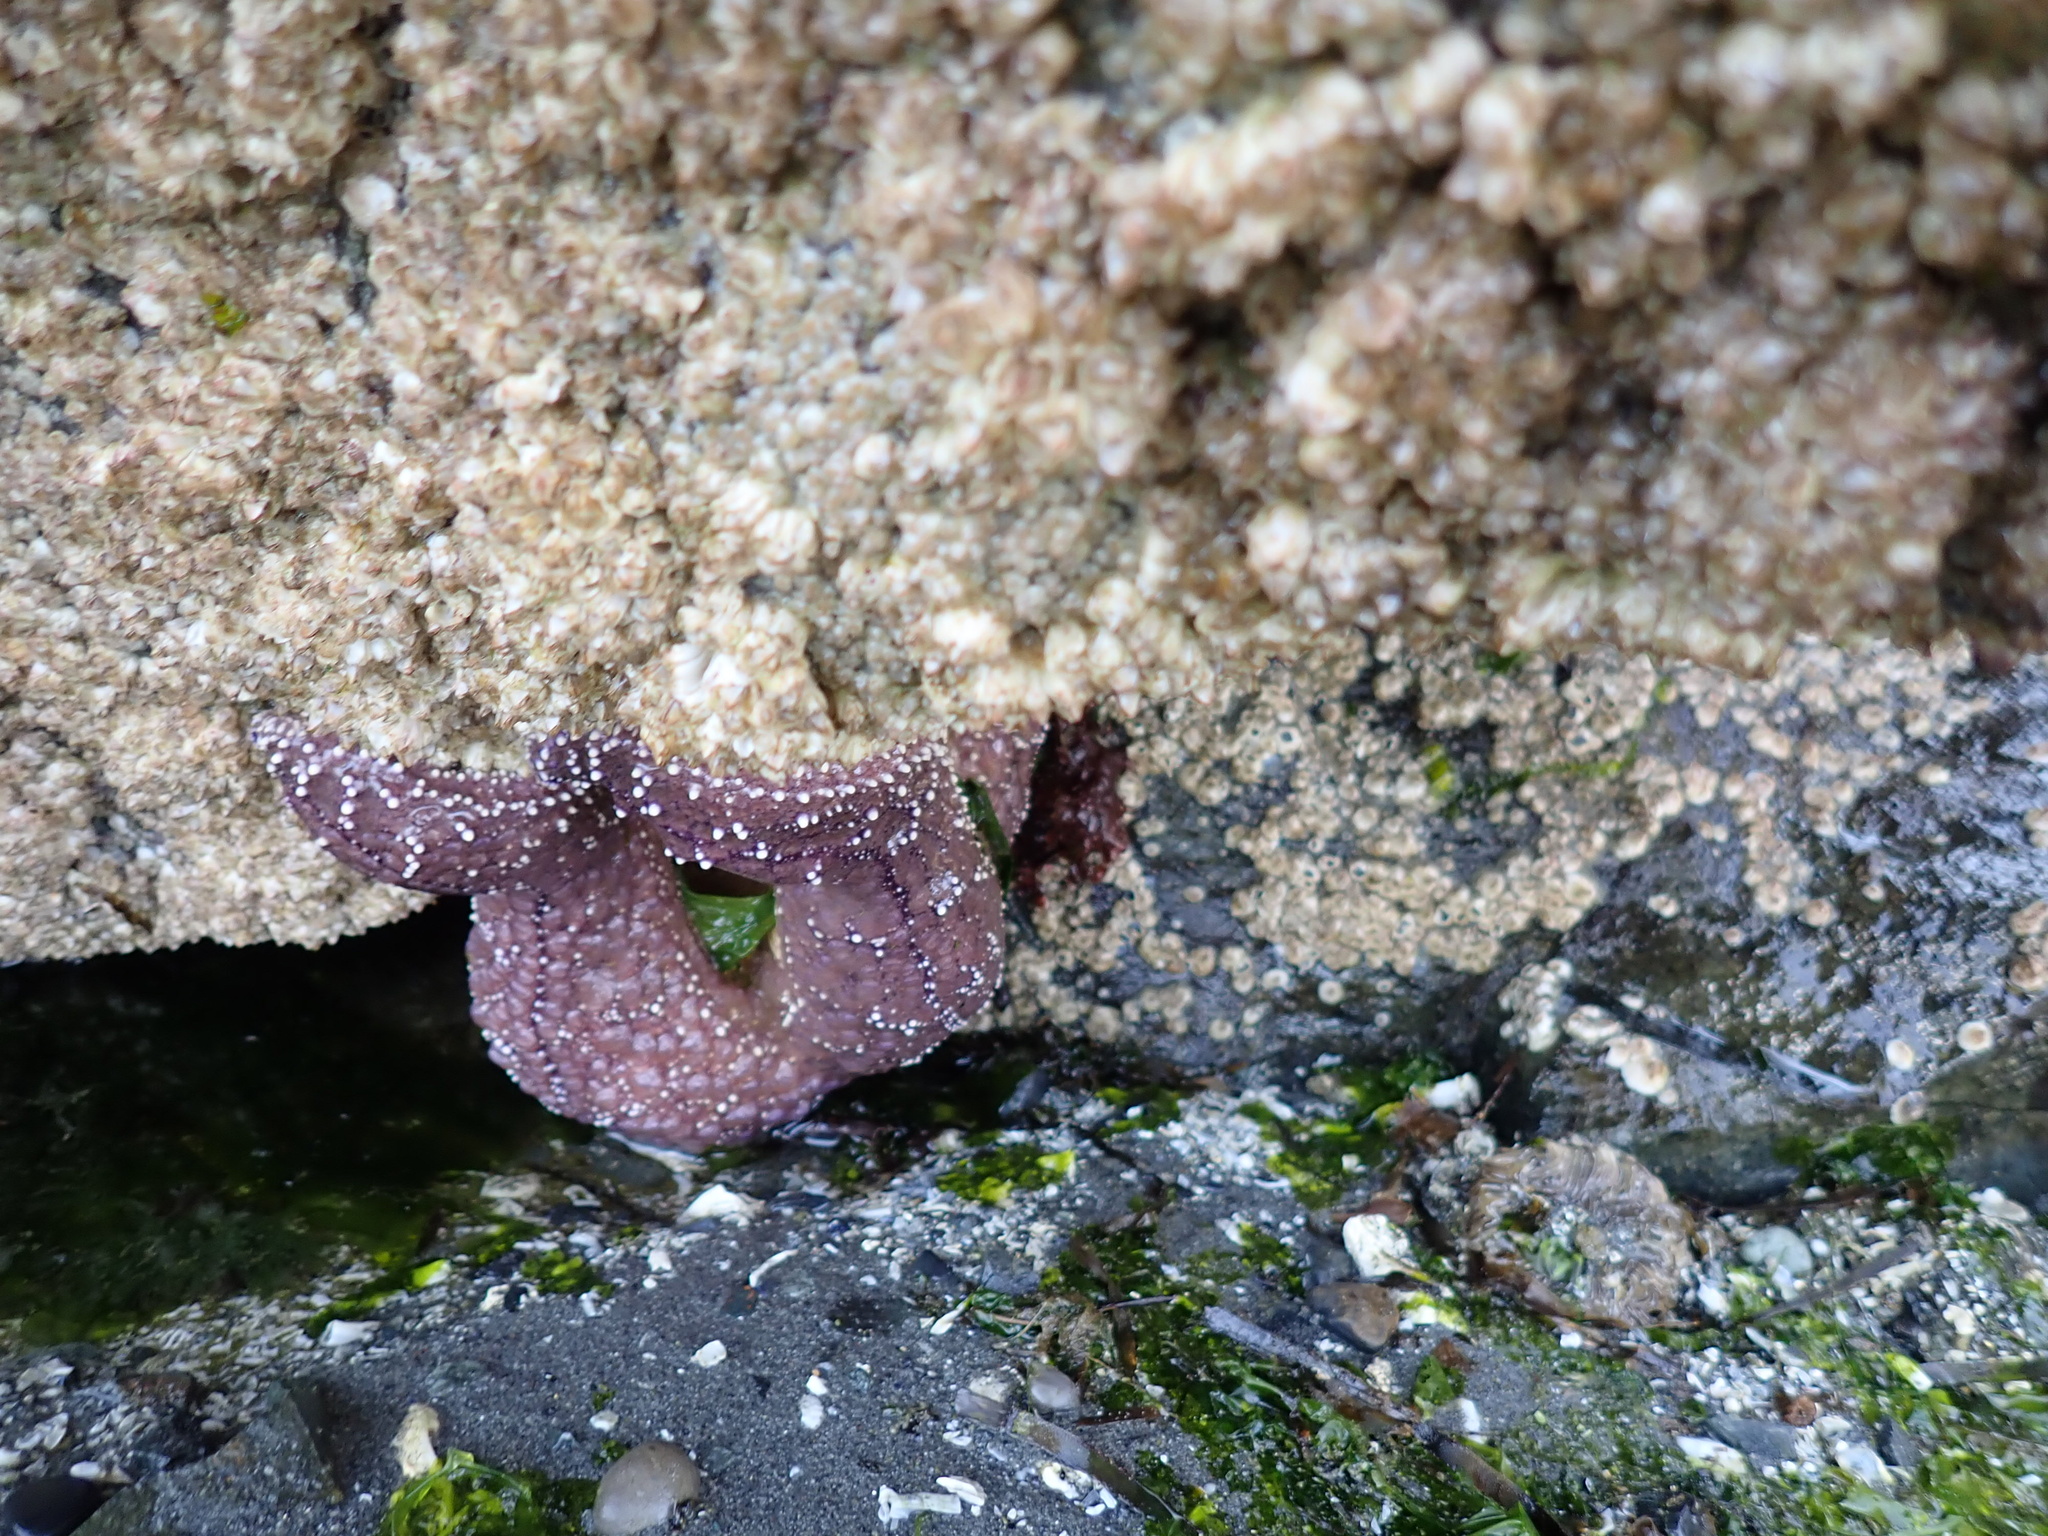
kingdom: Animalia
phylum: Echinodermata
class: Asteroidea
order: Forcipulatida
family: Asteriidae
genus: Pisaster
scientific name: Pisaster ochraceus
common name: Ochre stars
